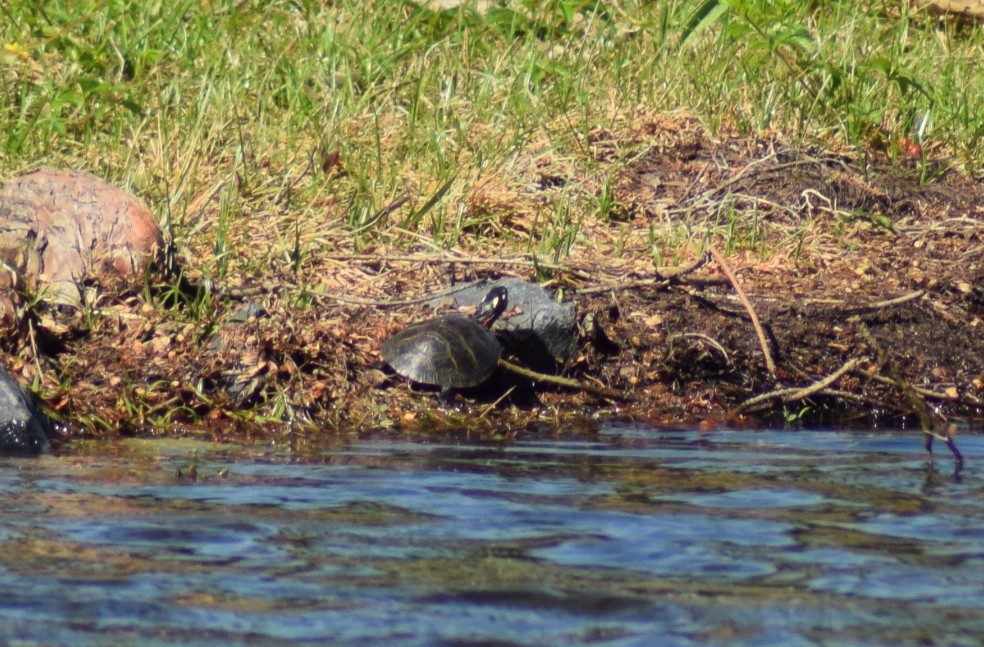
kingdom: Animalia
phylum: Chordata
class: Testudines
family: Emydidae
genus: Chrysemys
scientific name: Chrysemys picta
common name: Painted turtle
